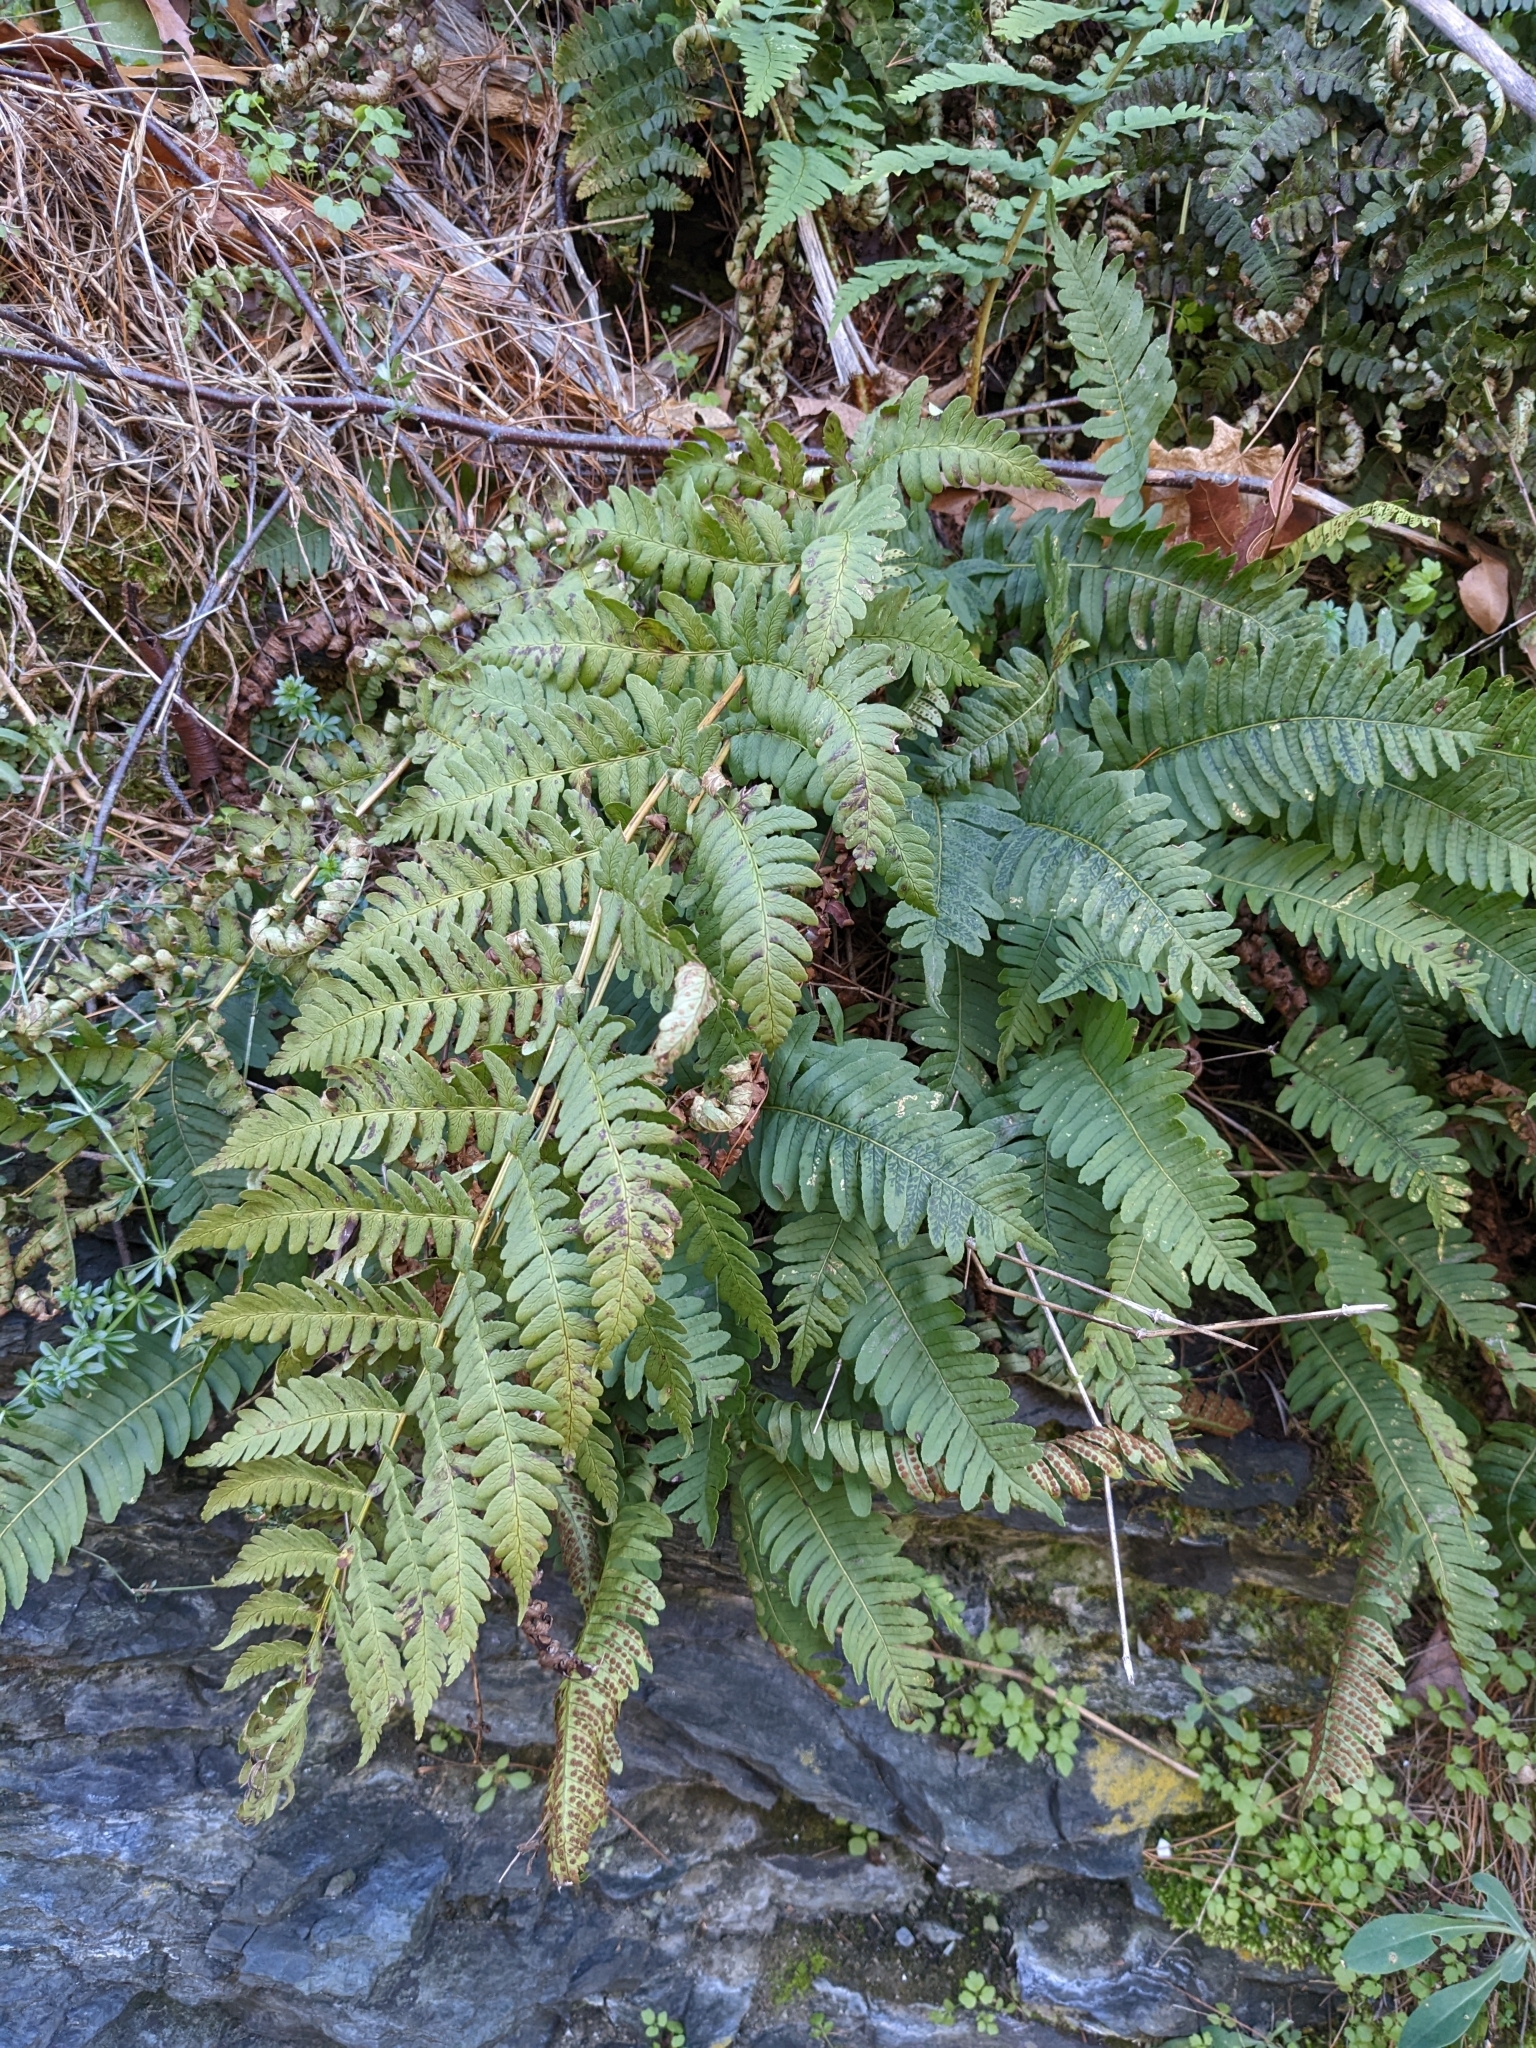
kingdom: Plantae
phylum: Tracheophyta
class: Polypodiopsida
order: Polypodiales
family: Dryopteridaceae
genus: Dryopteris
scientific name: Dryopteris marginalis
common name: Marginal wood fern
